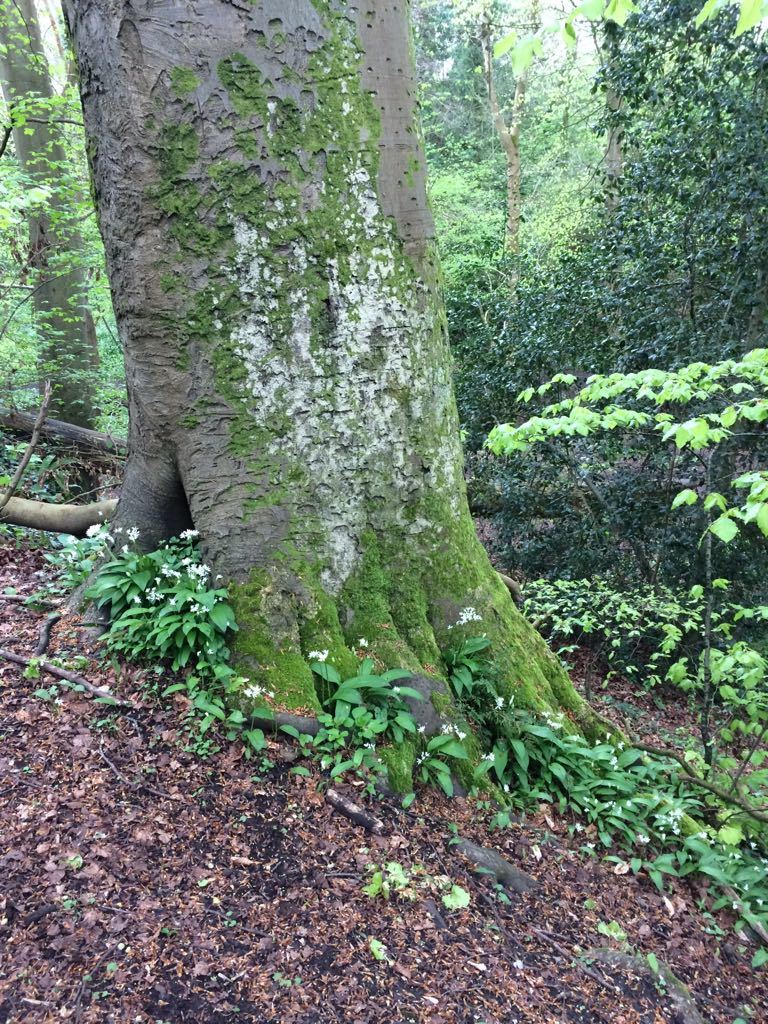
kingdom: Plantae
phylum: Tracheophyta
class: Liliopsida
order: Asparagales
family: Amaryllidaceae
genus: Allium
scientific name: Allium ursinum
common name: Ramsons
